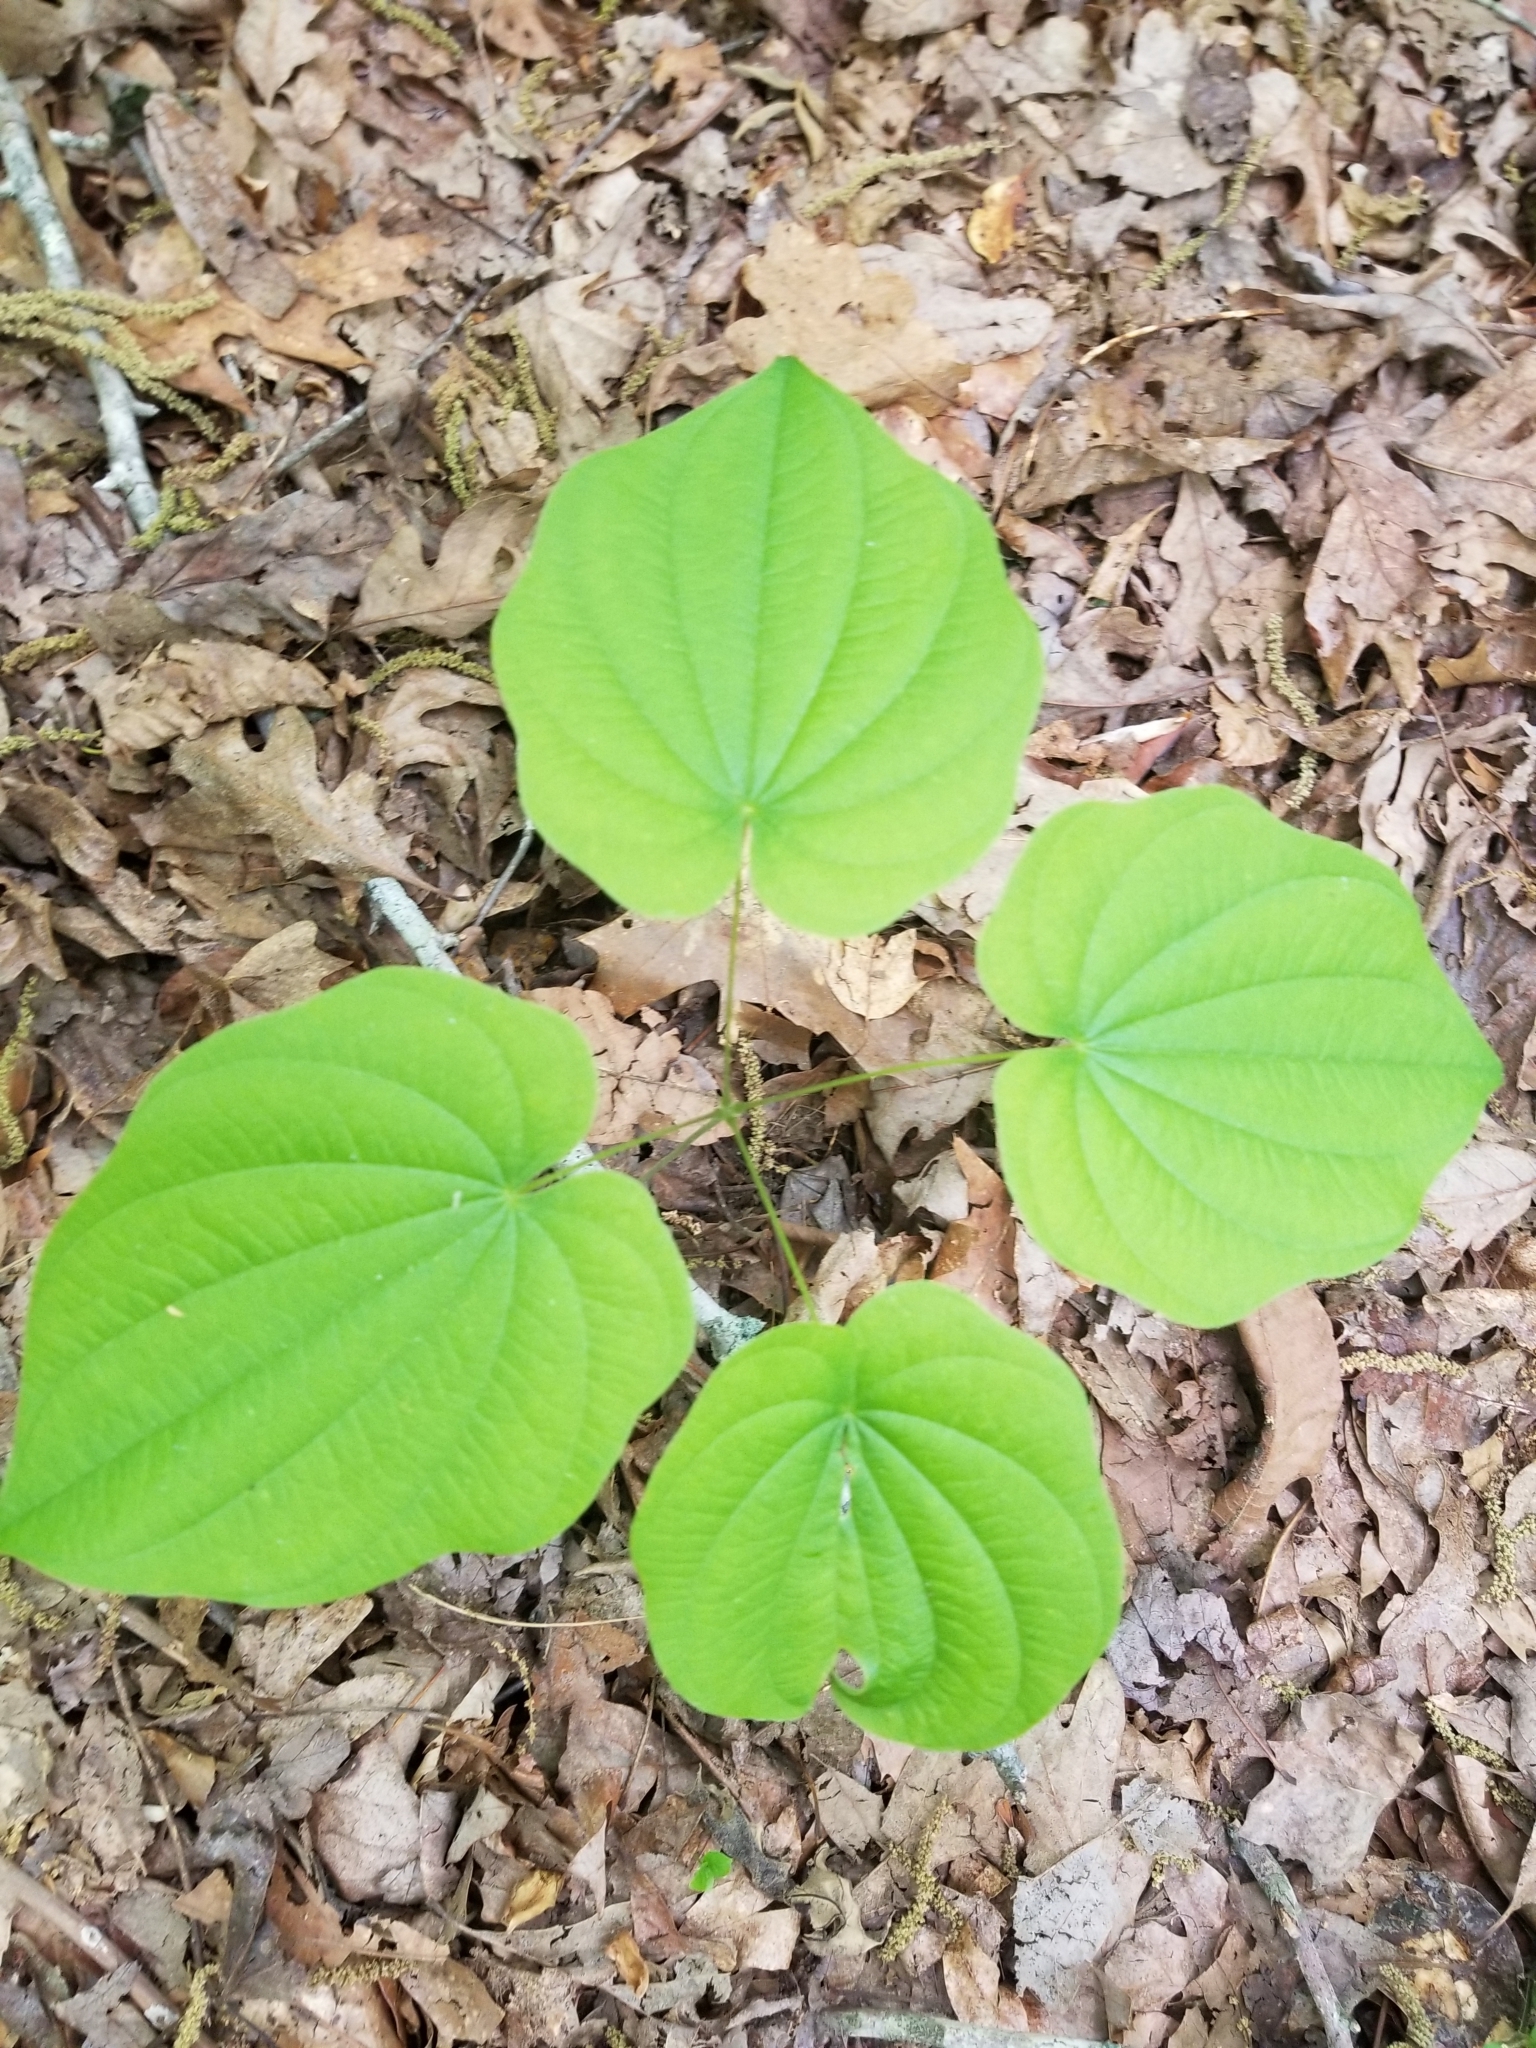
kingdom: Plantae
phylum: Tracheophyta
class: Liliopsida
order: Dioscoreales
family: Dioscoreaceae
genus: Dioscorea
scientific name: Dioscorea villosa
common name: Wild yam
